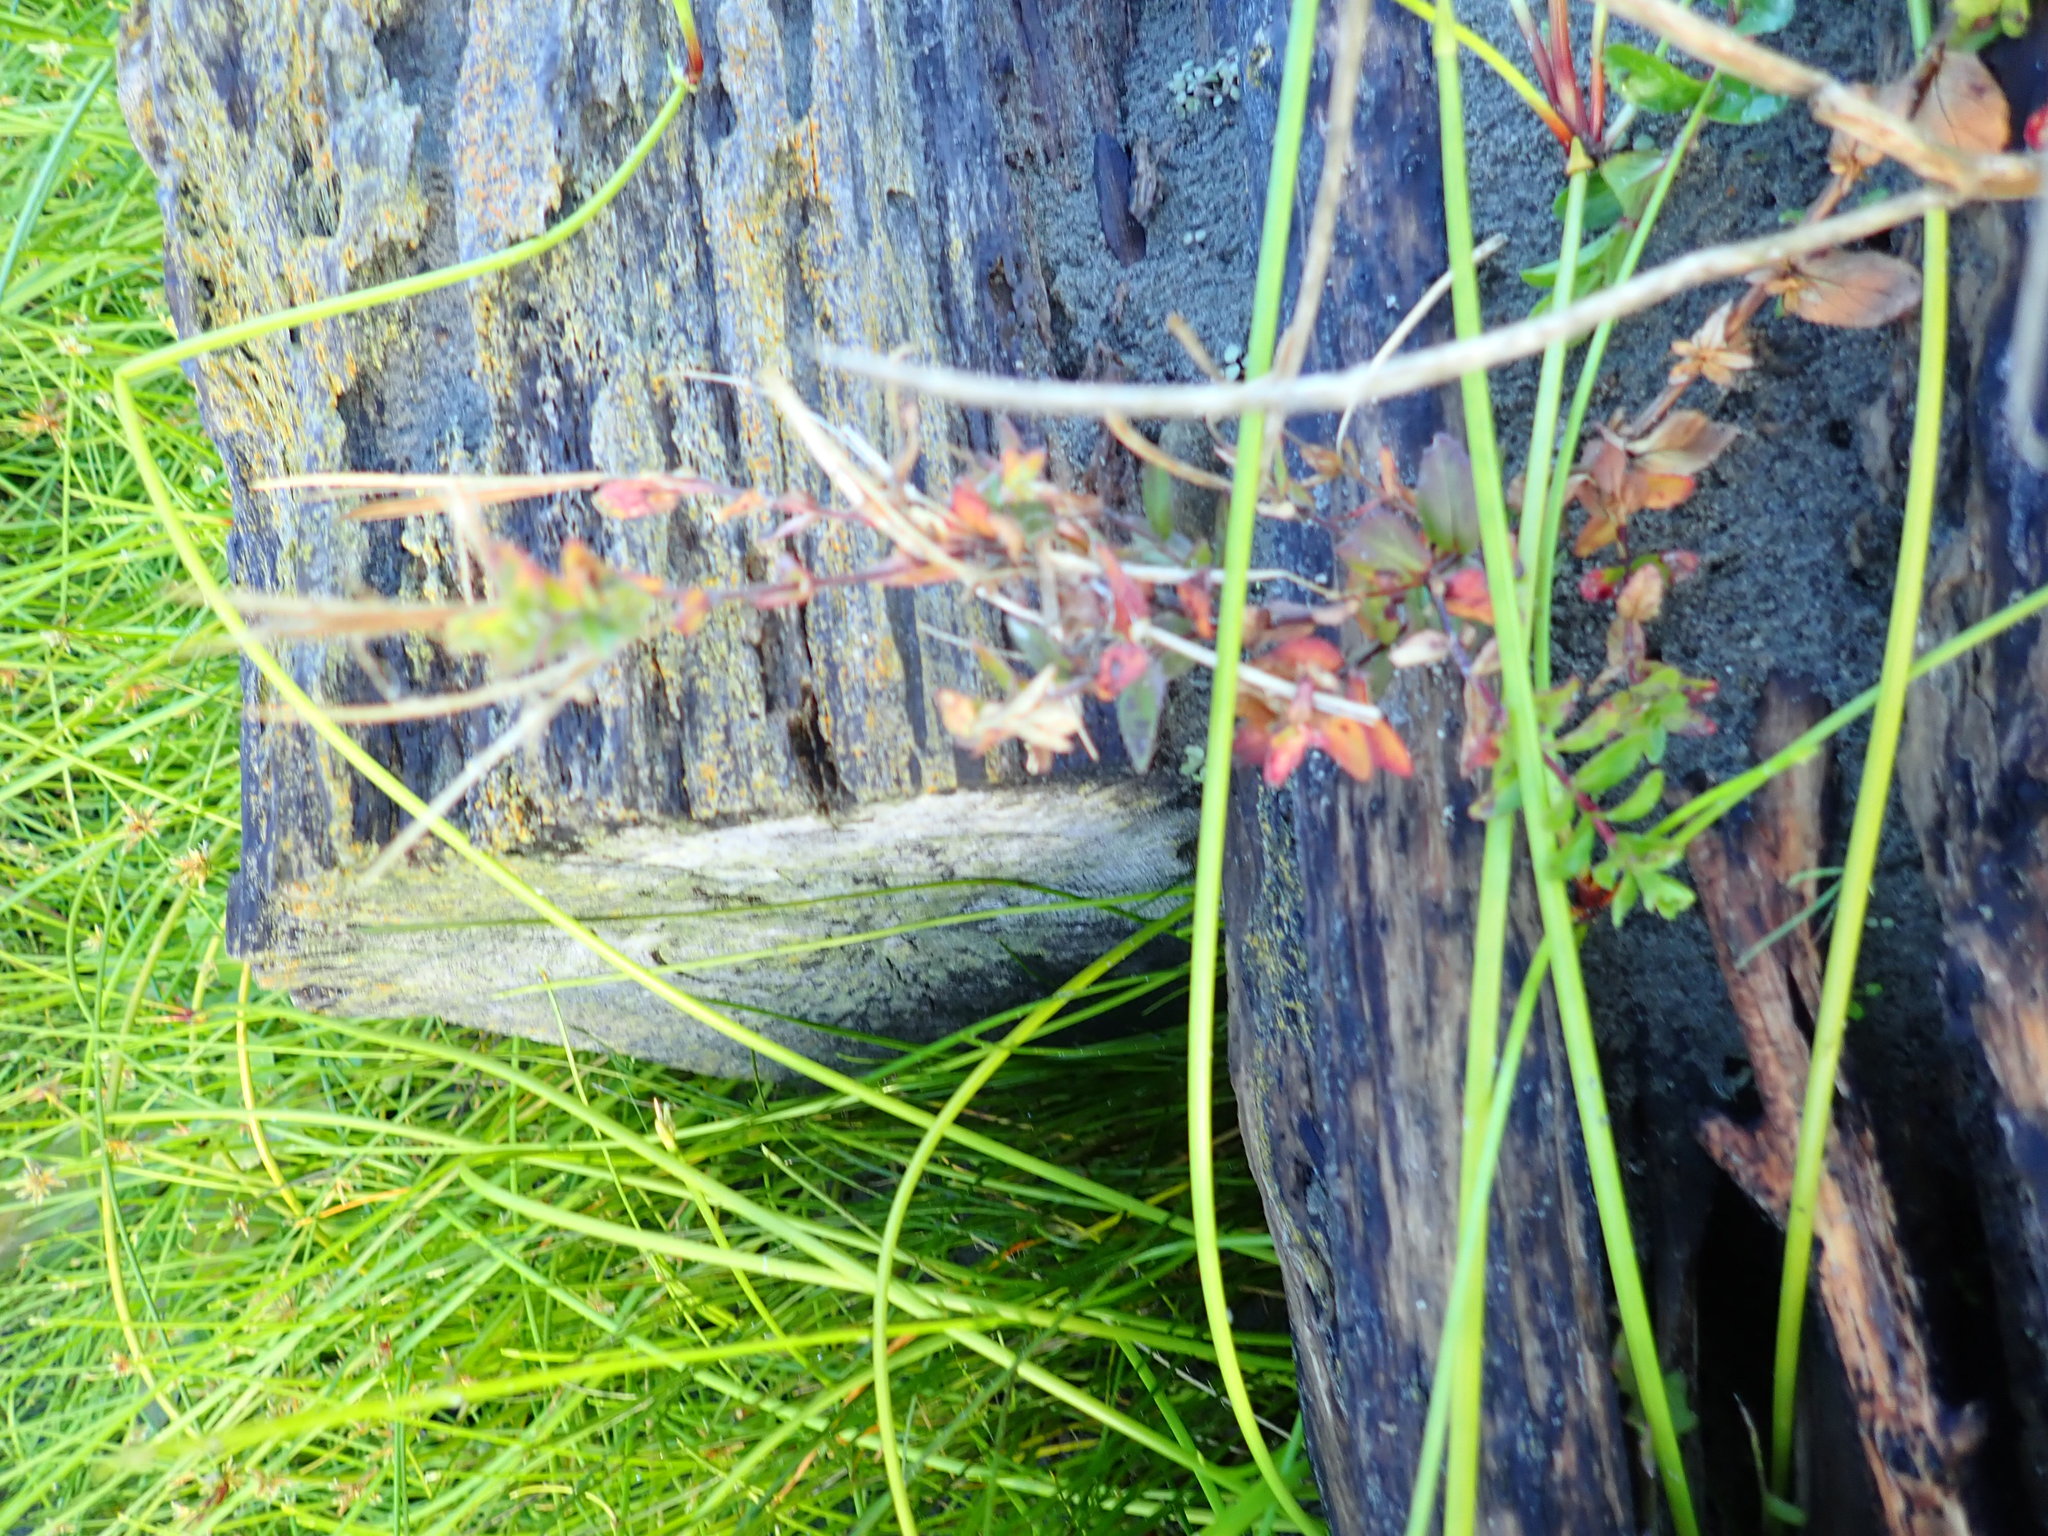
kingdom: Plantae
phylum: Tracheophyta
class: Magnoliopsida
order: Myrtales
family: Onagraceae
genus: Epilobium
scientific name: Epilobium billardiereanum
